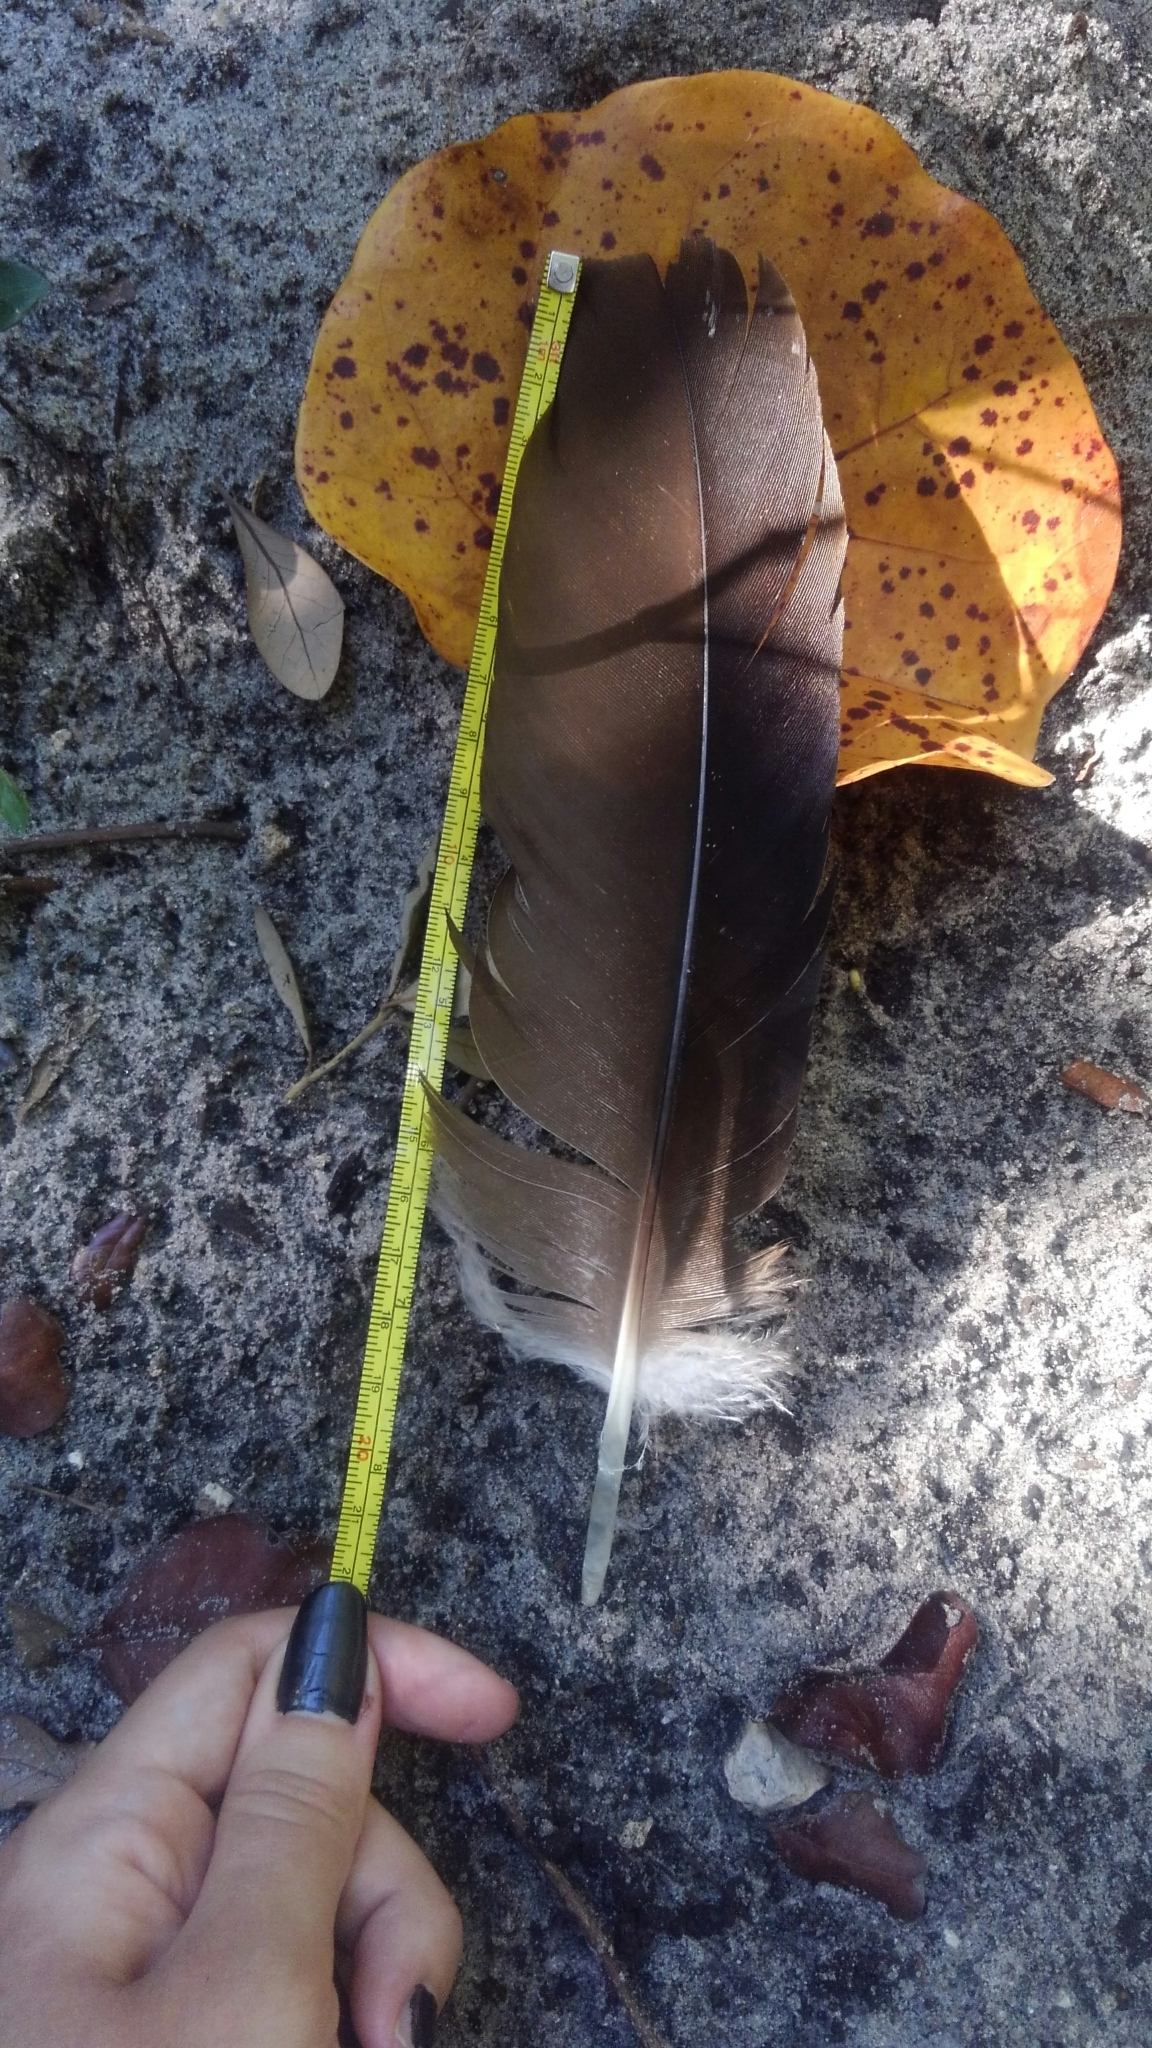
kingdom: Animalia
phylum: Chordata
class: Aves
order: Accipitriformes
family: Cathartidae
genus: Cathartes
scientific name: Cathartes aura
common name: Turkey vulture
